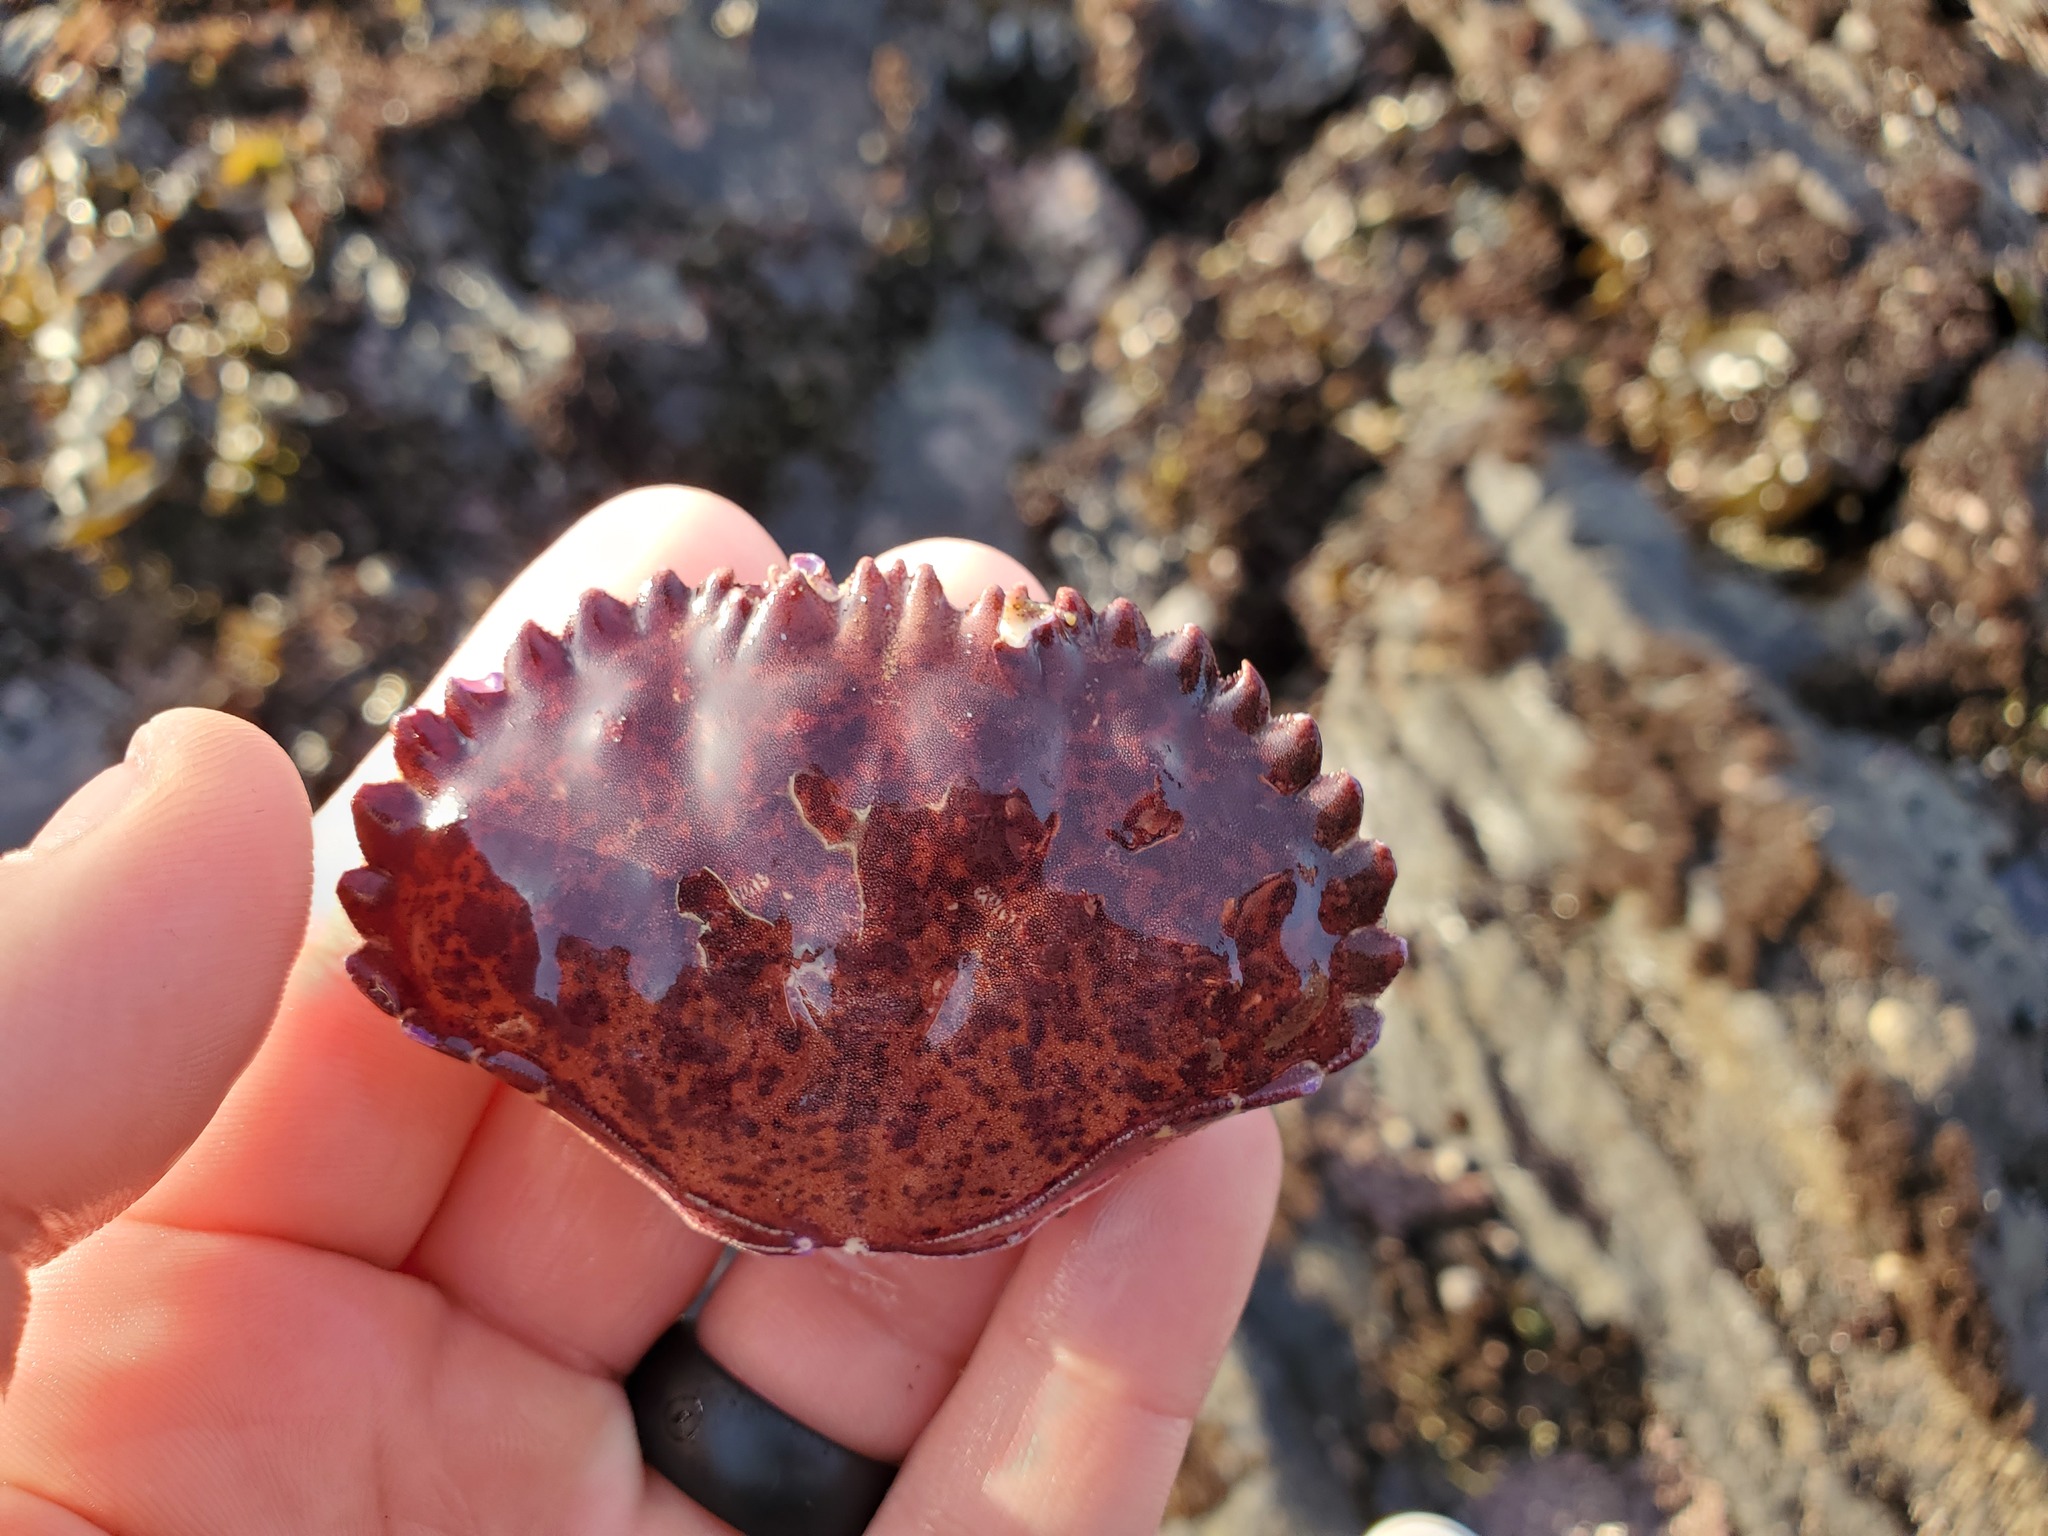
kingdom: Animalia
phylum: Arthropoda
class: Malacostraca
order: Decapoda
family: Cancridae
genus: Romaleon
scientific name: Romaleon antennarium
